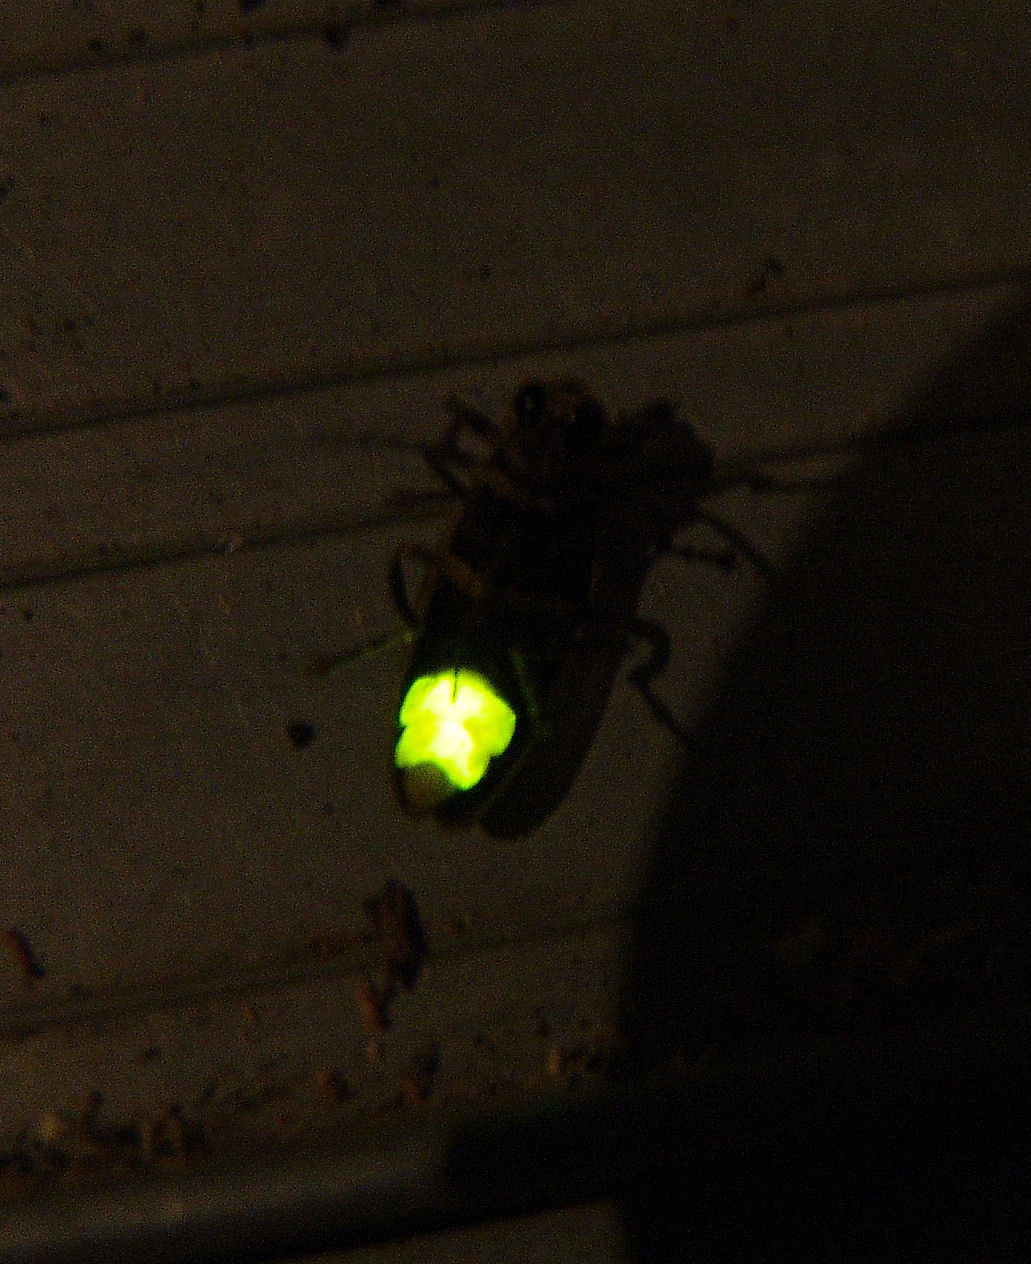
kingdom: Animalia
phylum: Arthropoda
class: Insecta
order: Coleoptera
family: Lampyridae
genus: Photuris
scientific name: Photuris
